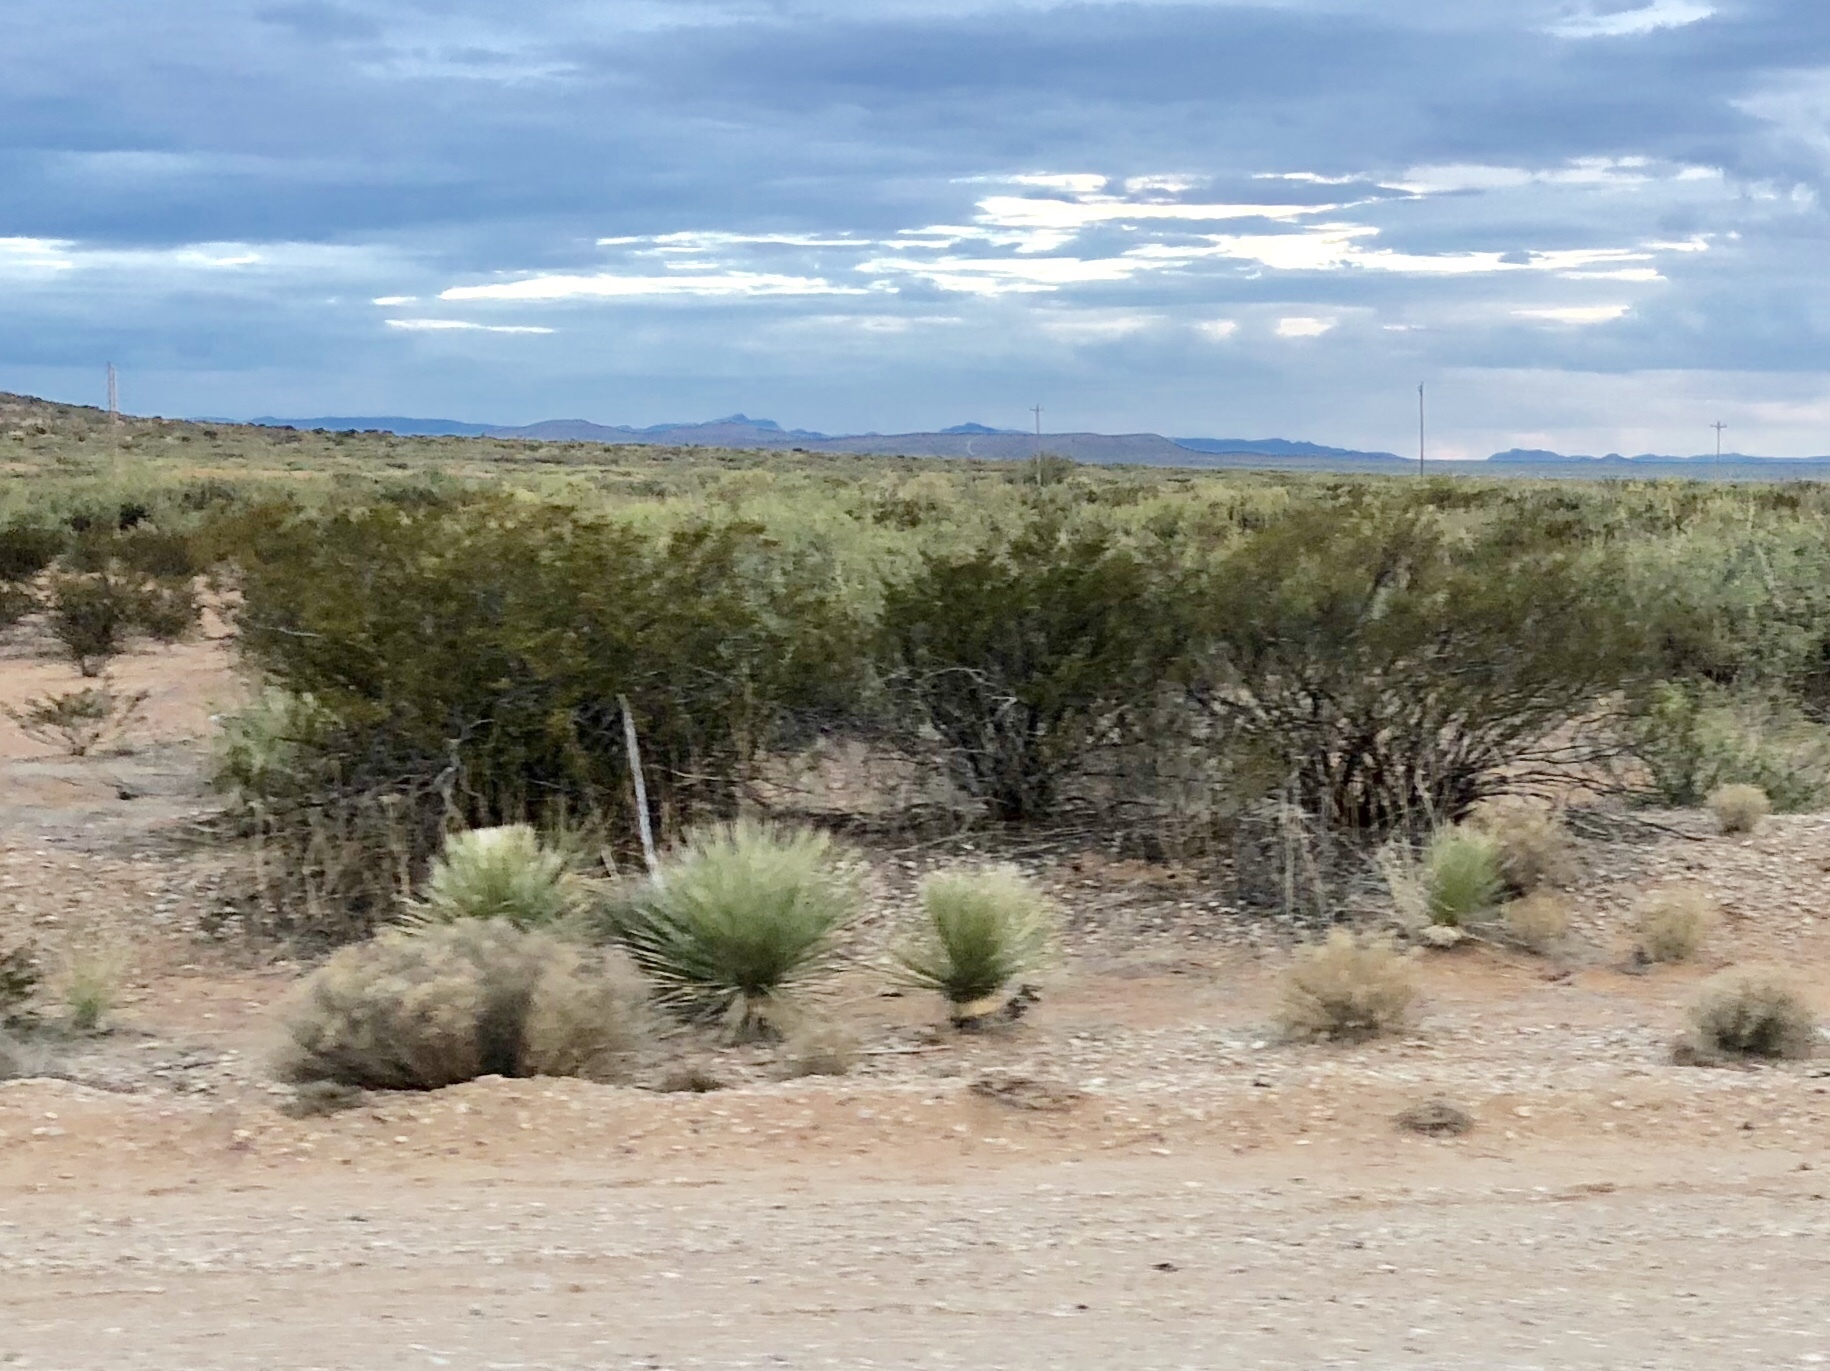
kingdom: Plantae
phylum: Tracheophyta
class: Magnoliopsida
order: Zygophyllales
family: Zygophyllaceae
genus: Larrea
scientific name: Larrea tridentata
